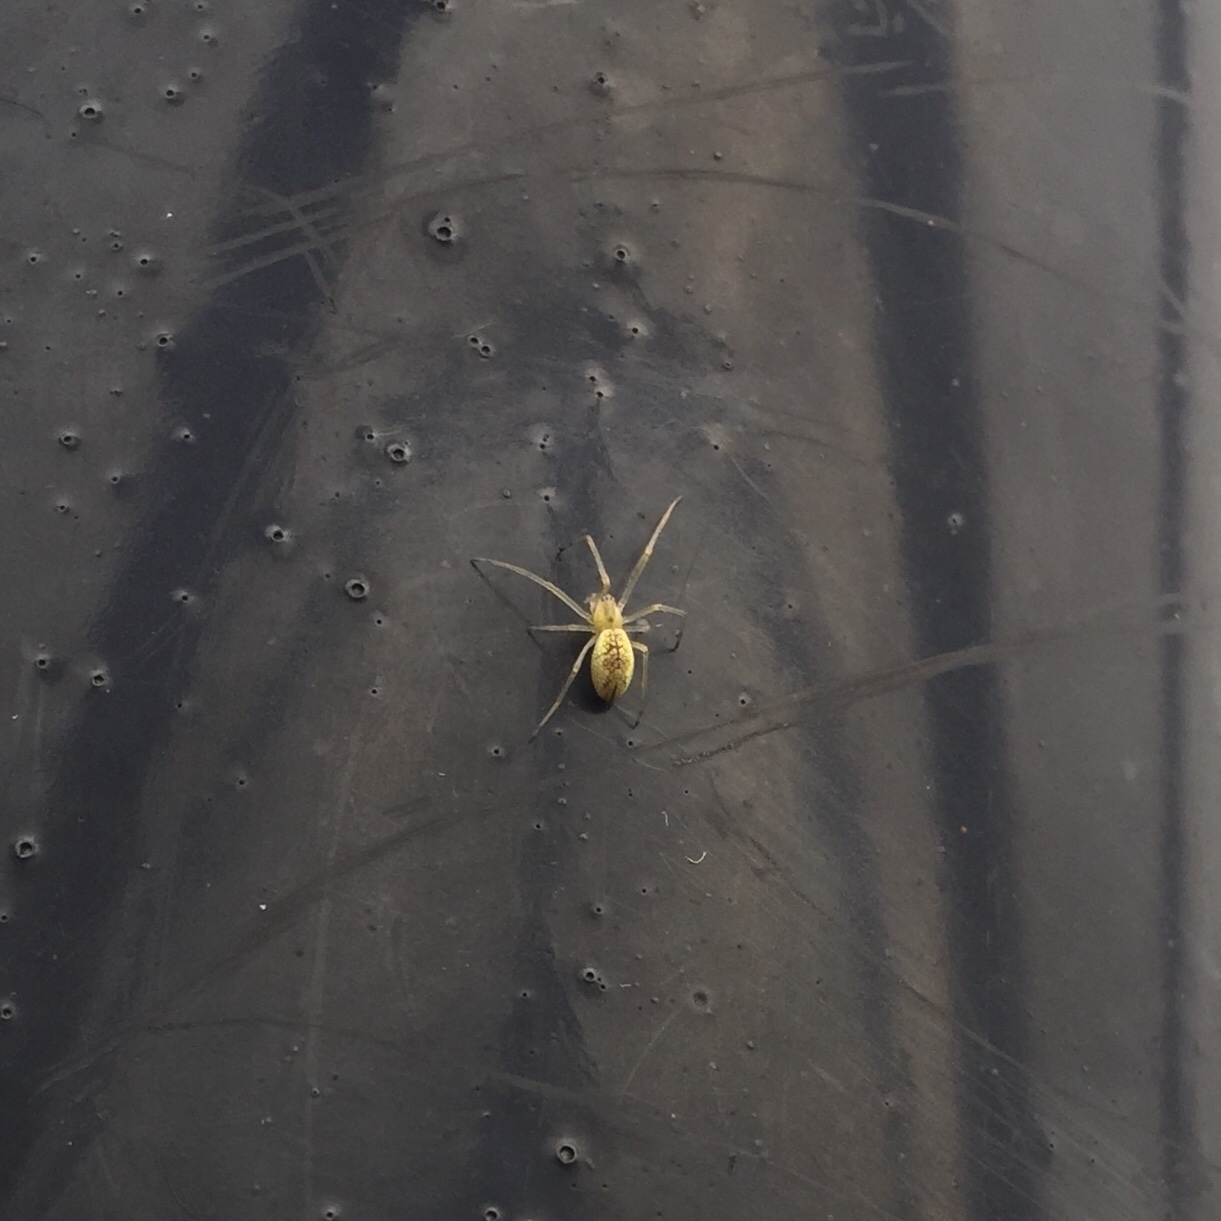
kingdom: Animalia
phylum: Arthropoda
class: Arachnida
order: Araneae
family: Tetragnathidae
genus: Tetragnatha
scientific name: Tetragnatha
